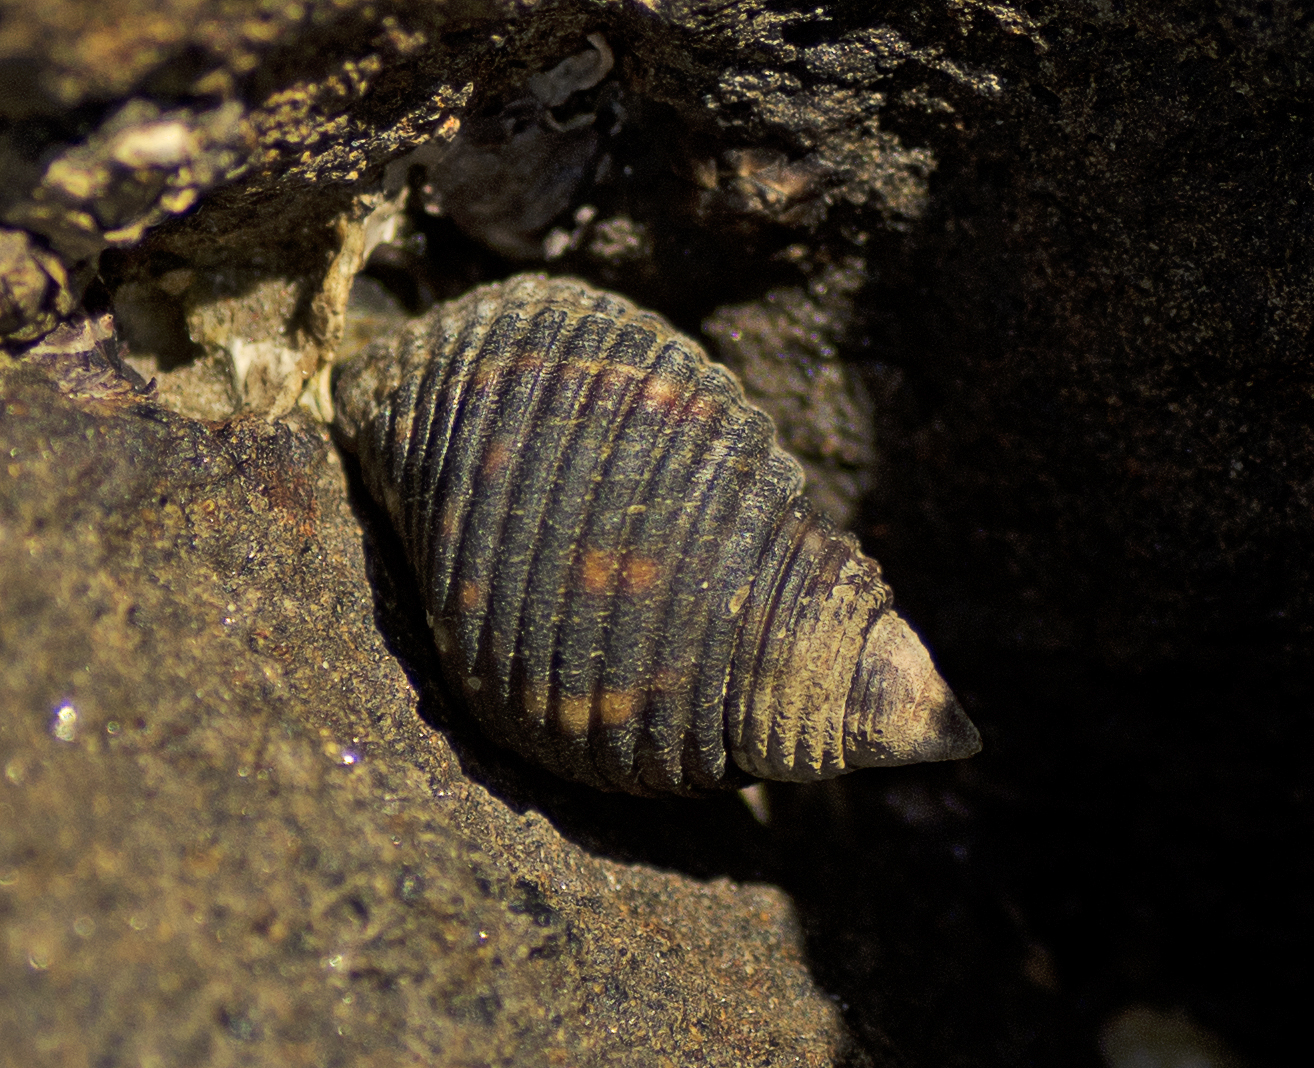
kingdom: Animalia
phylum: Mollusca
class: Gastropoda
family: Planaxidae
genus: Planaxis
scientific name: Planaxis sulcatus
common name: Furrowed planaxis
